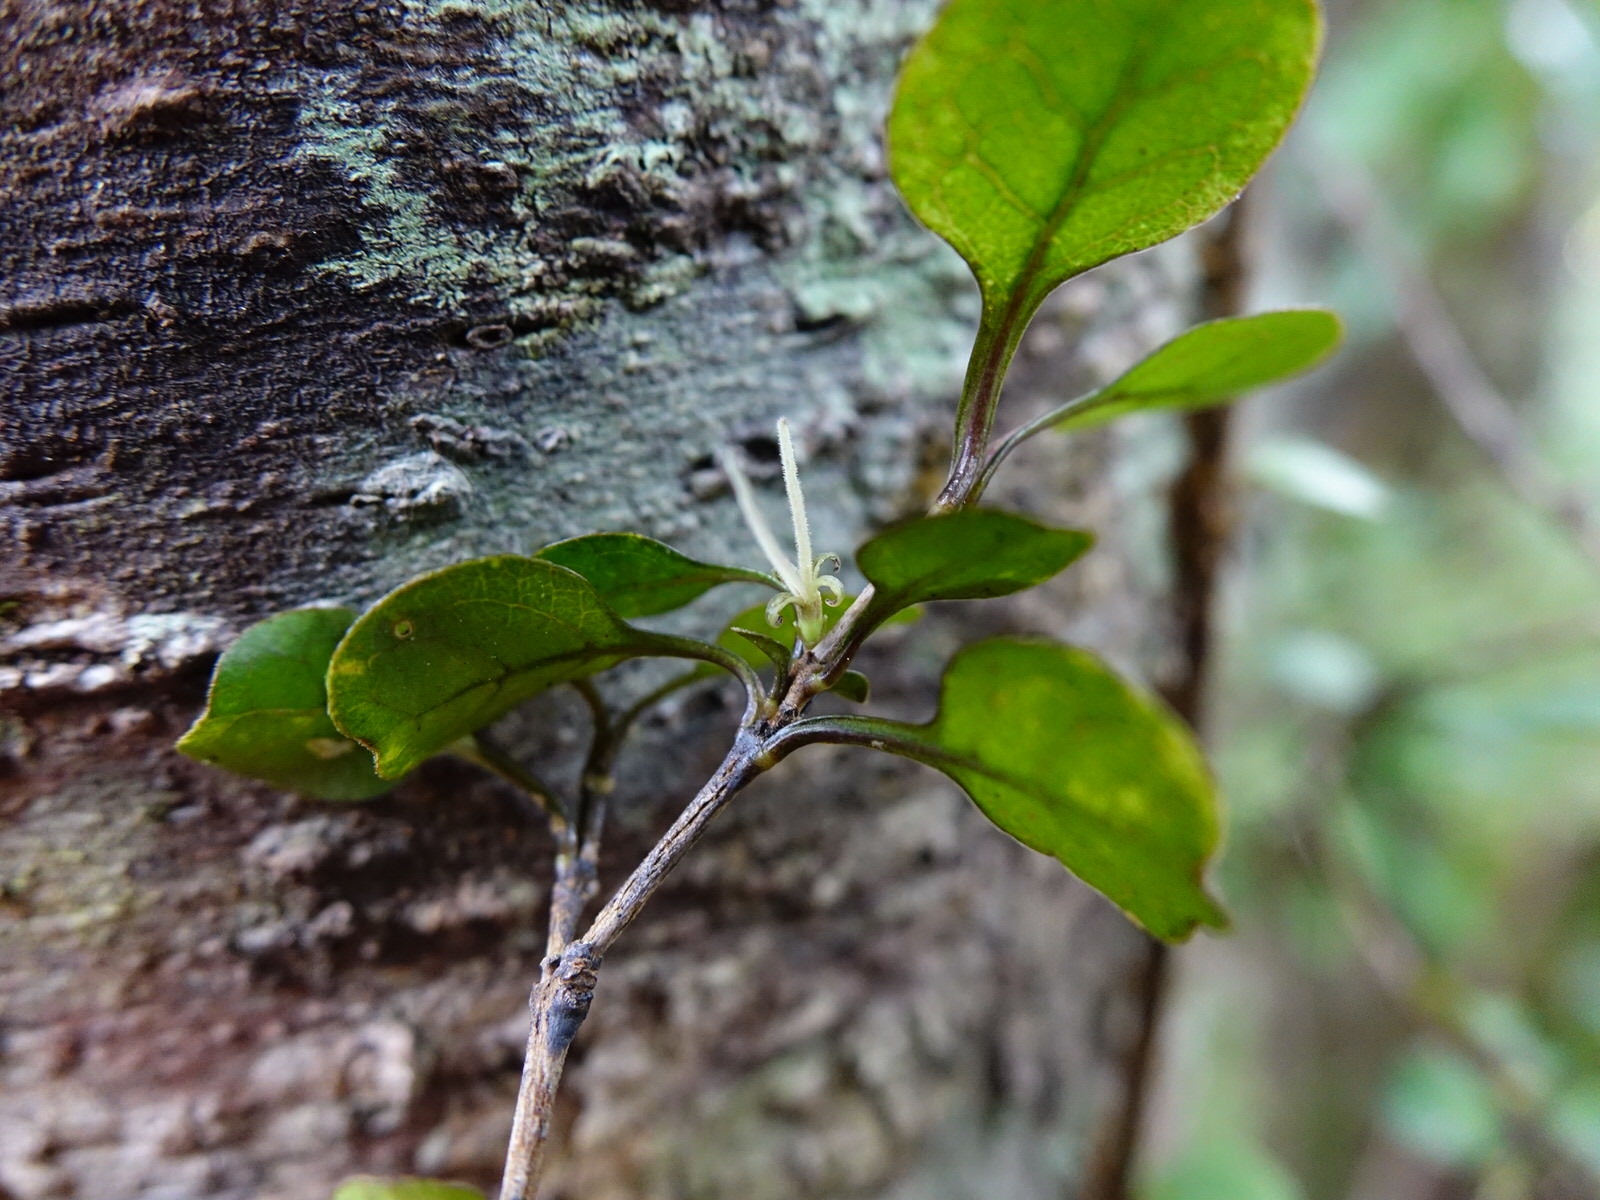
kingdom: Plantae
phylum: Tracheophyta
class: Magnoliopsida
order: Gentianales
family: Rubiaceae
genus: Coprosma
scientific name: Coprosma arborea
